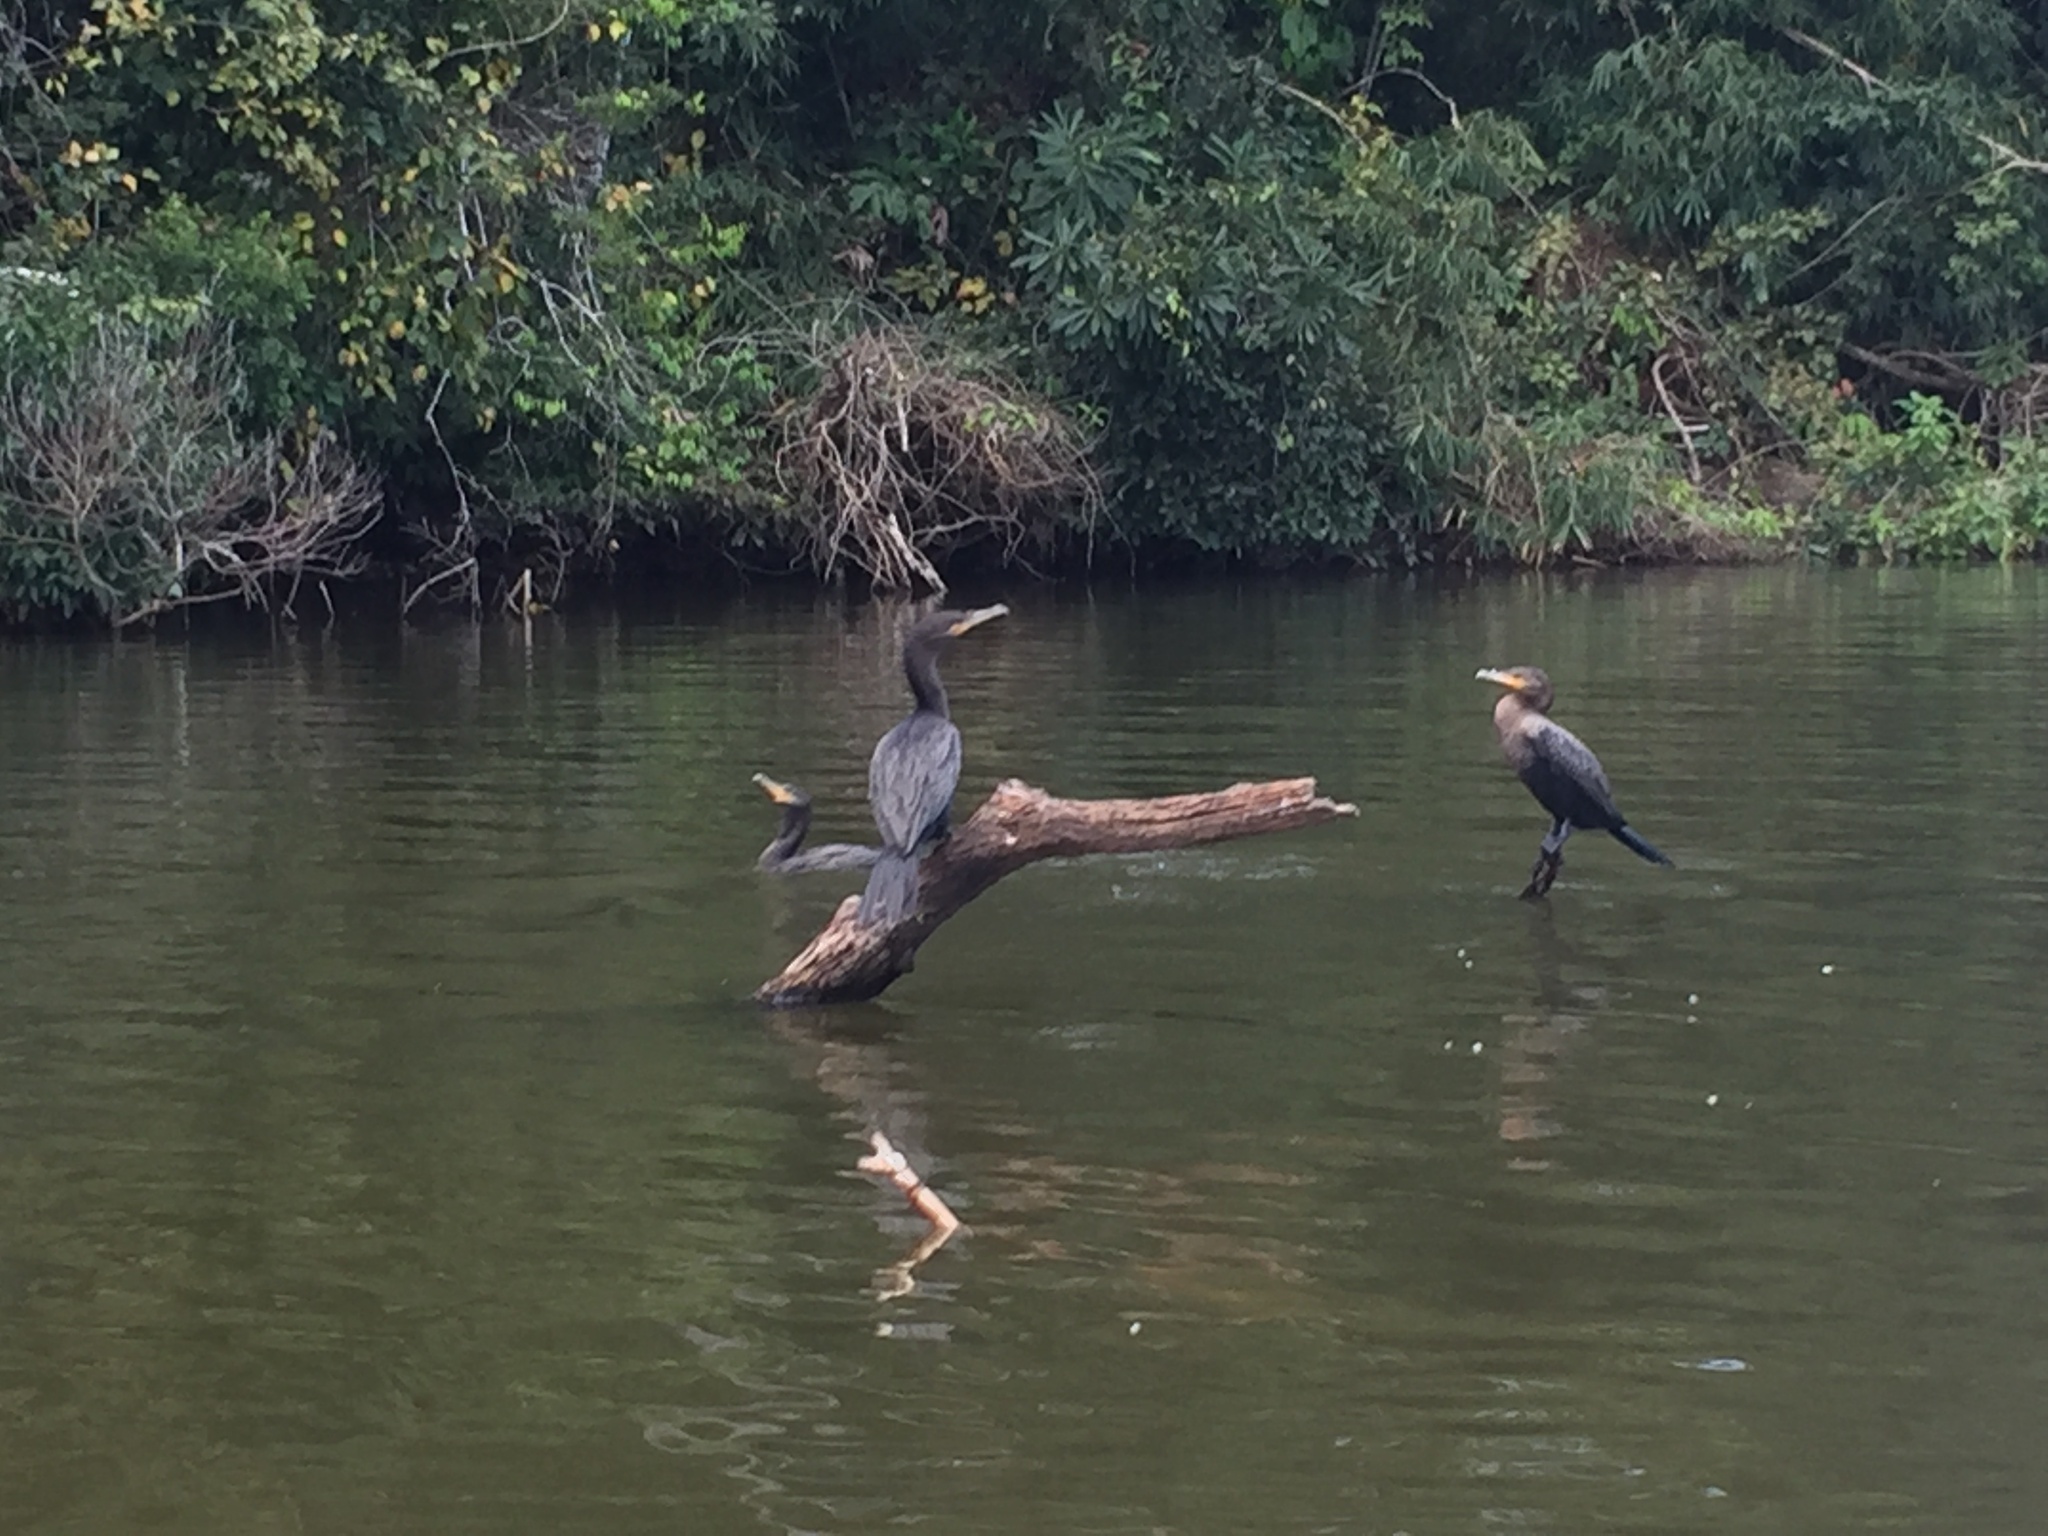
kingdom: Animalia
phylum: Chordata
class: Aves
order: Suliformes
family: Phalacrocoracidae
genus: Phalacrocorax
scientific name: Phalacrocorax brasilianus
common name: Neotropic cormorant
